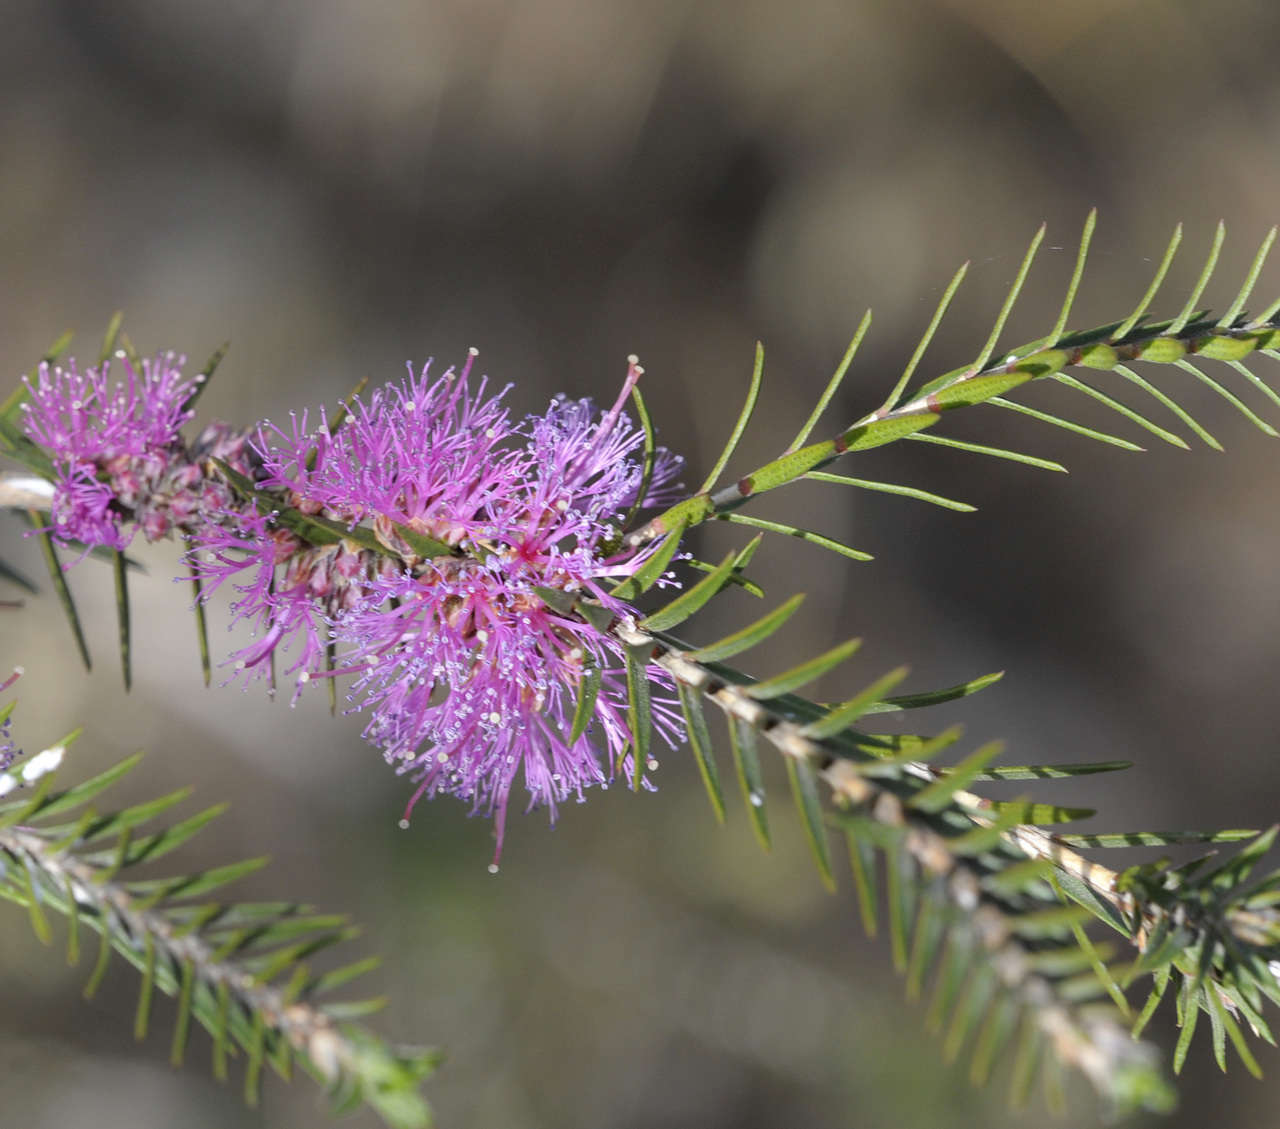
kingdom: Plantae
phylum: Tracheophyta
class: Magnoliopsida
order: Myrtales
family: Myrtaceae
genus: Melaleuca
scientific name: Melaleuca wilsonii
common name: Violet honey myrtle
